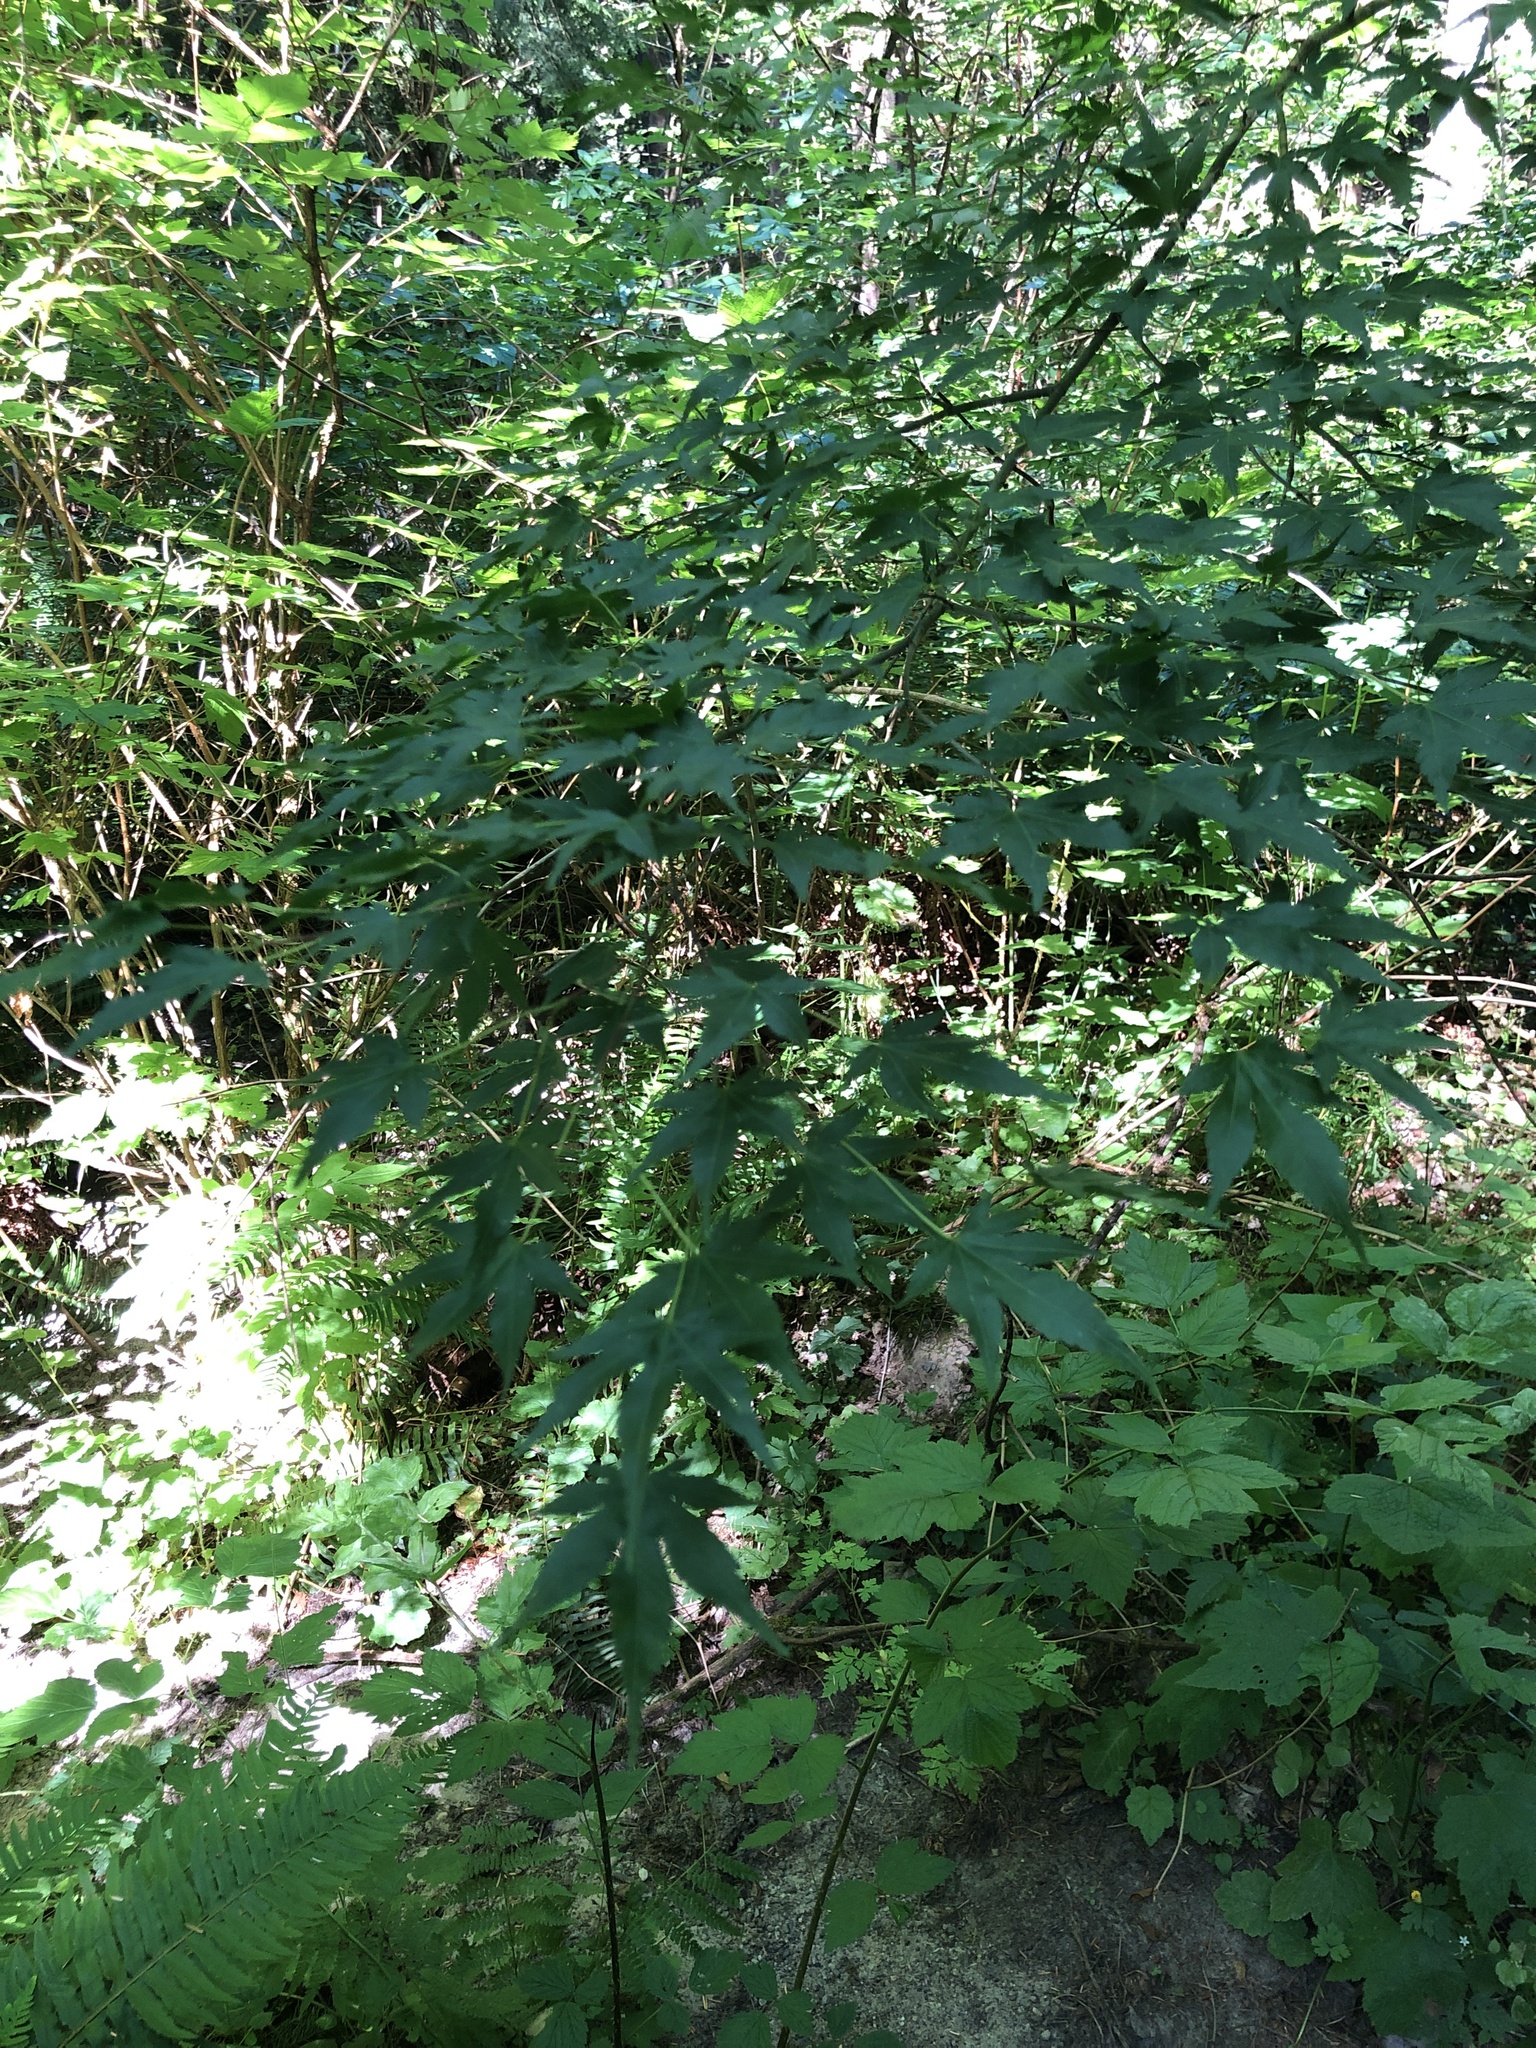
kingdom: Plantae
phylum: Tracheophyta
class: Magnoliopsida
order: Sapindales
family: Sapindaceae
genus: Acer
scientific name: Acer palmatum
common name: Japanese maple
